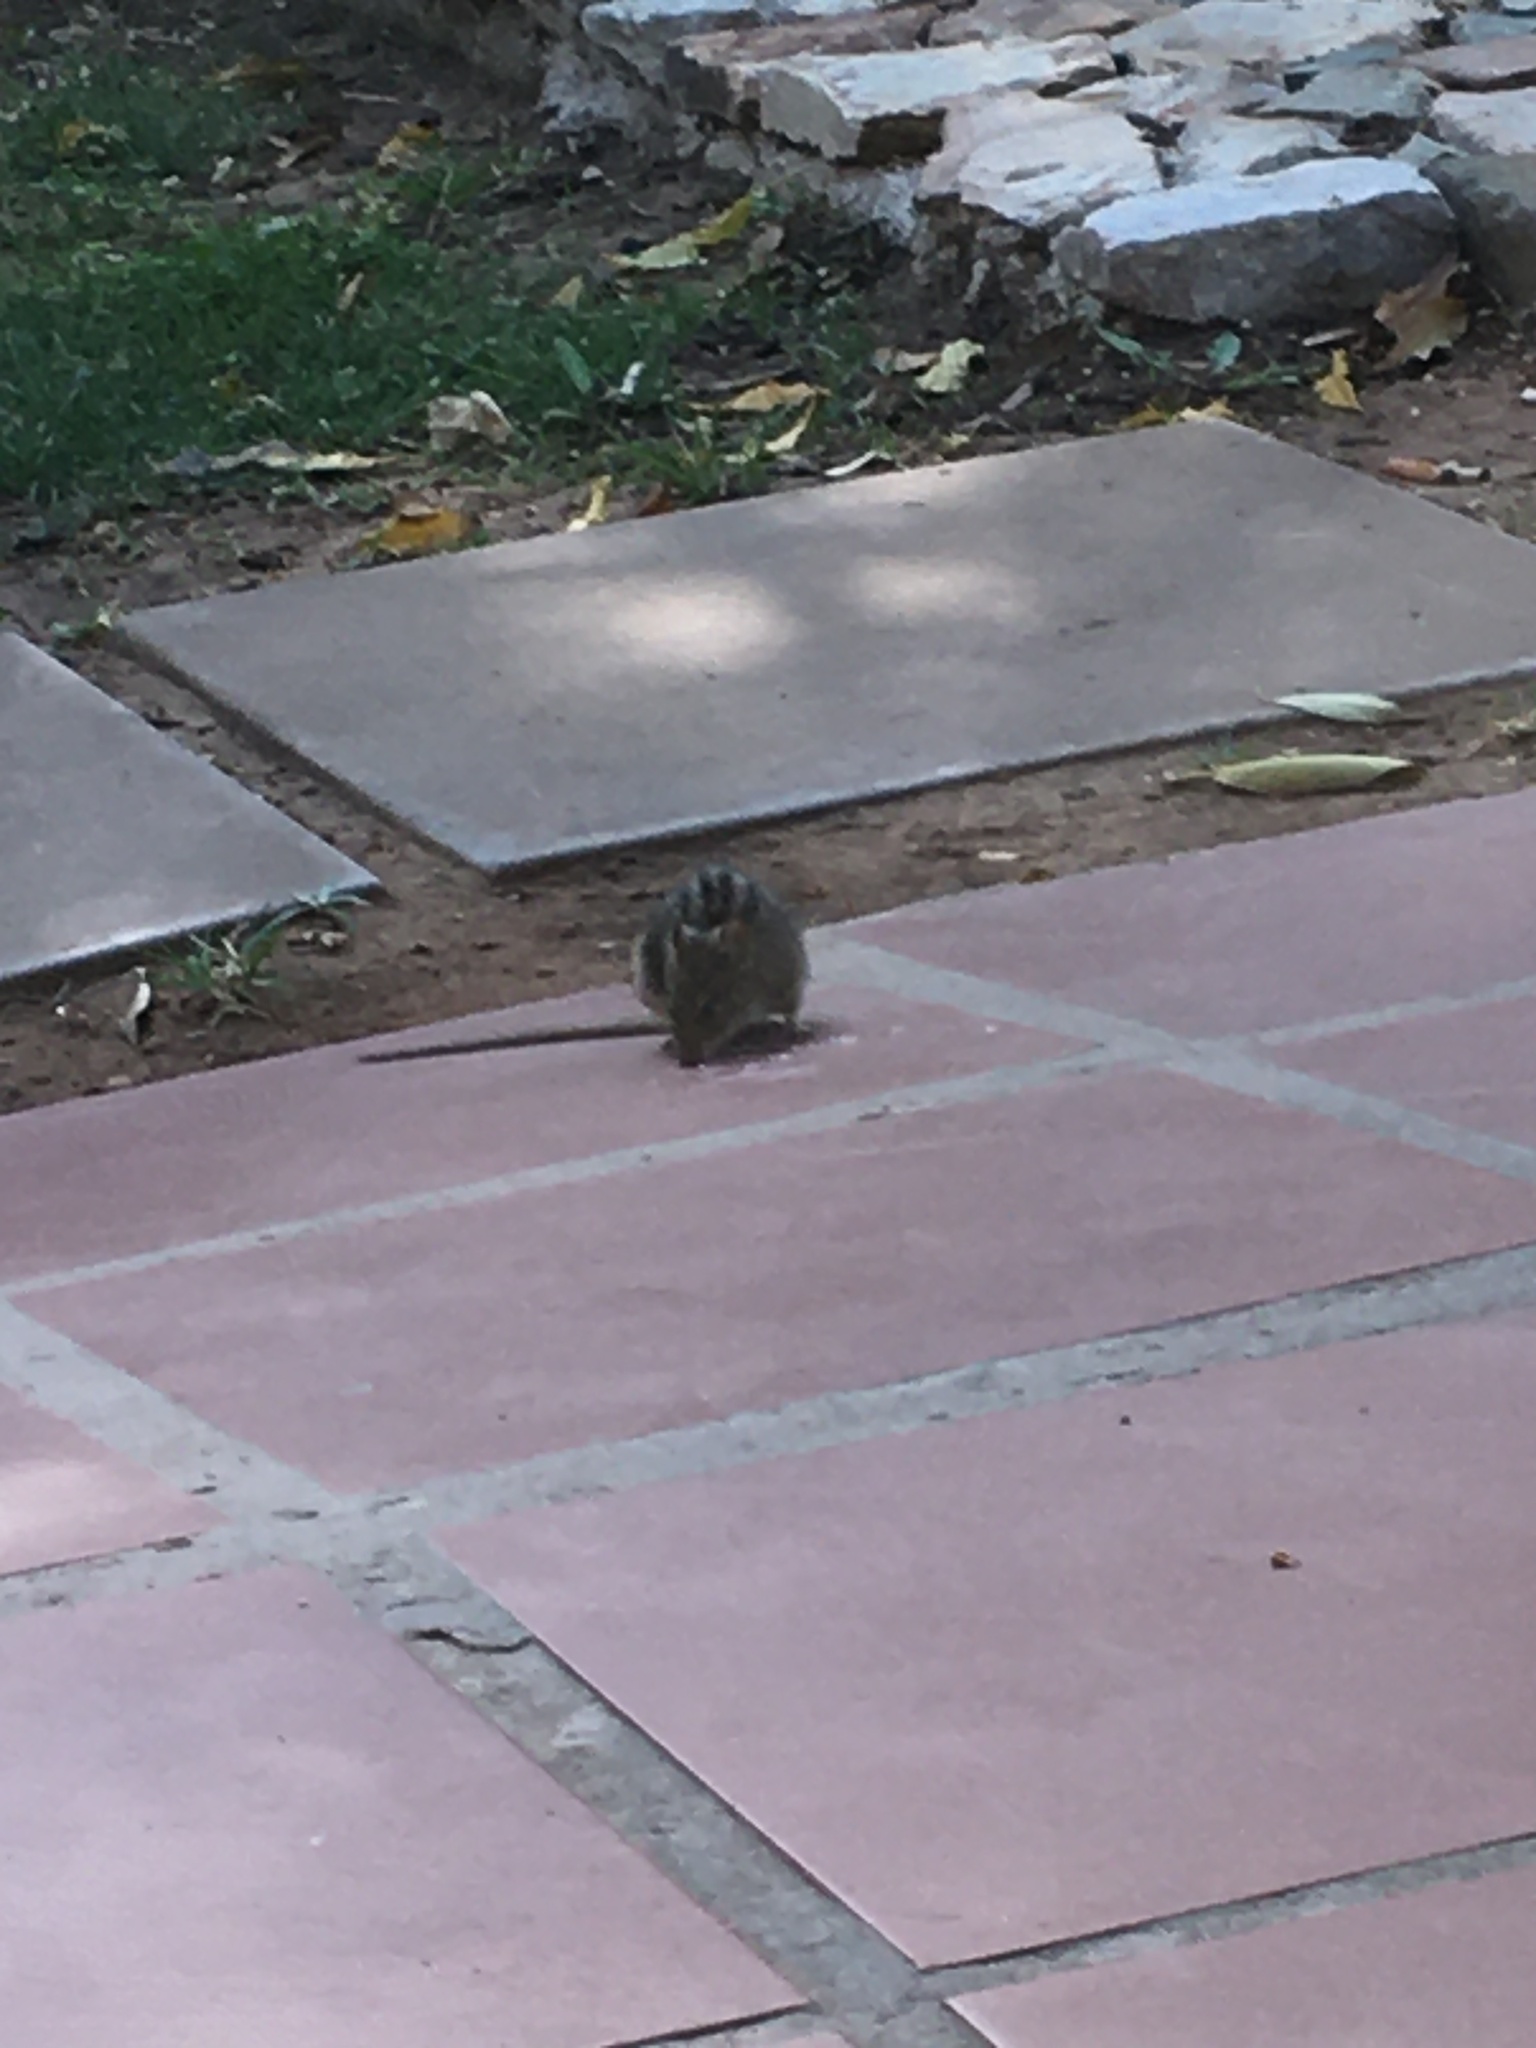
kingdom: Animalia
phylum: Chordata
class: Mammalia
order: Rodentia
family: Muridae
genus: Rhabdomys
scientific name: Rhabdomys pumilio
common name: Xeric four-striped grass rat
